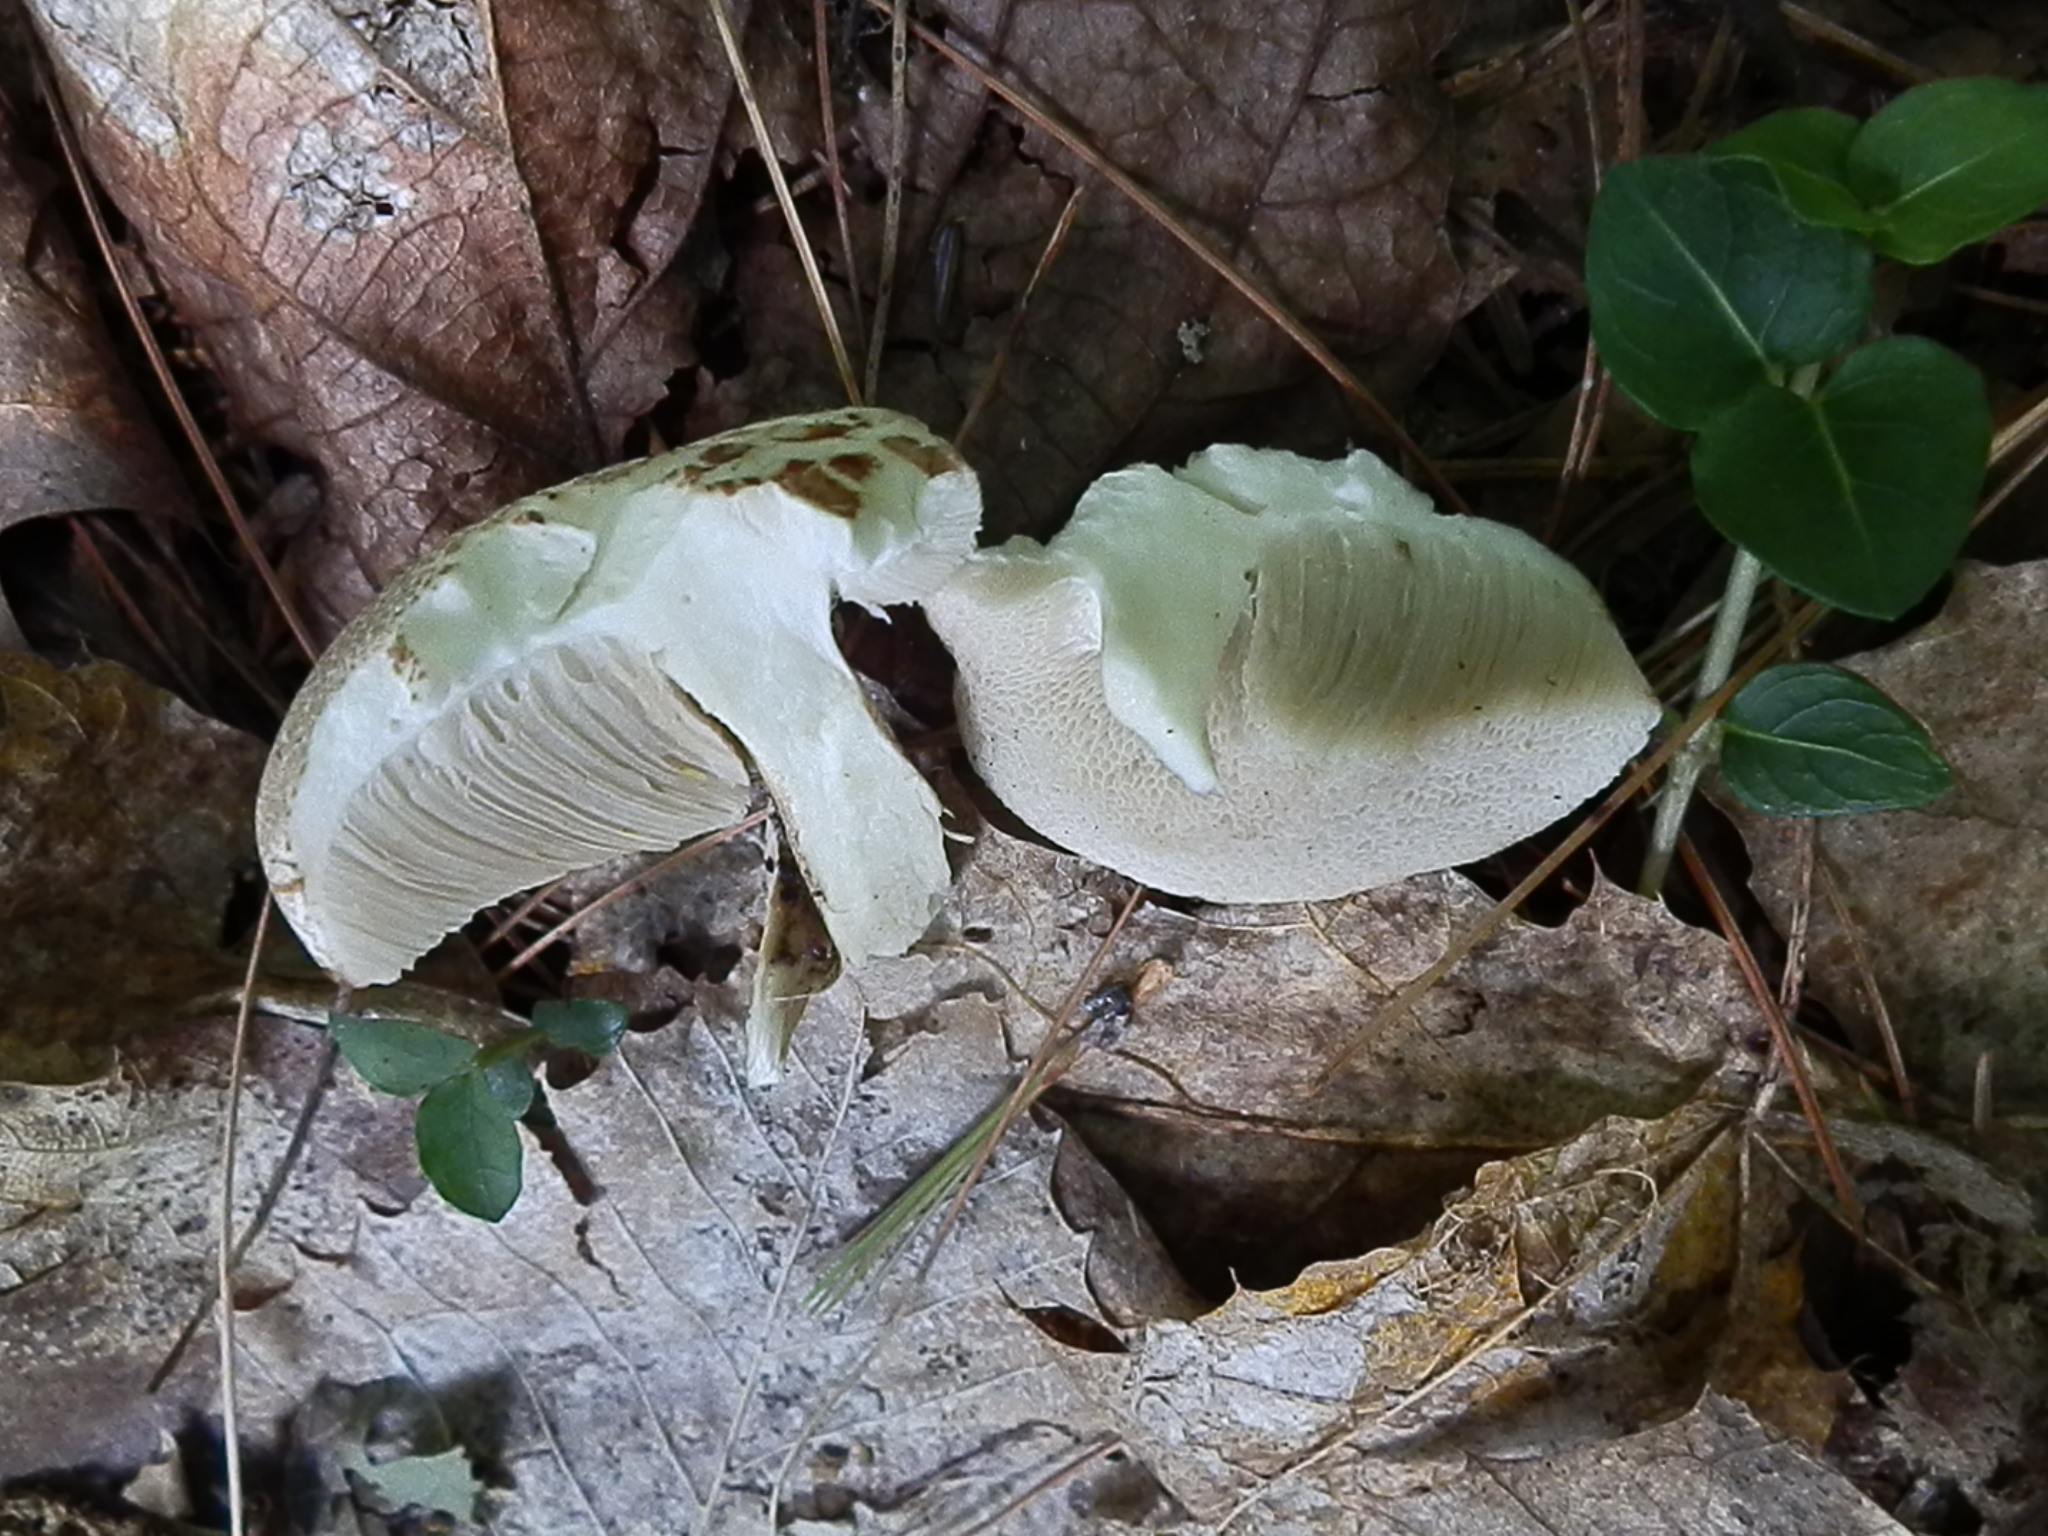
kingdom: Fungi
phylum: Basidiomycota
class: Agaricomycetes
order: Boletales
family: Boletaceae
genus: Leccinellum
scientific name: Leccinellum albellum
